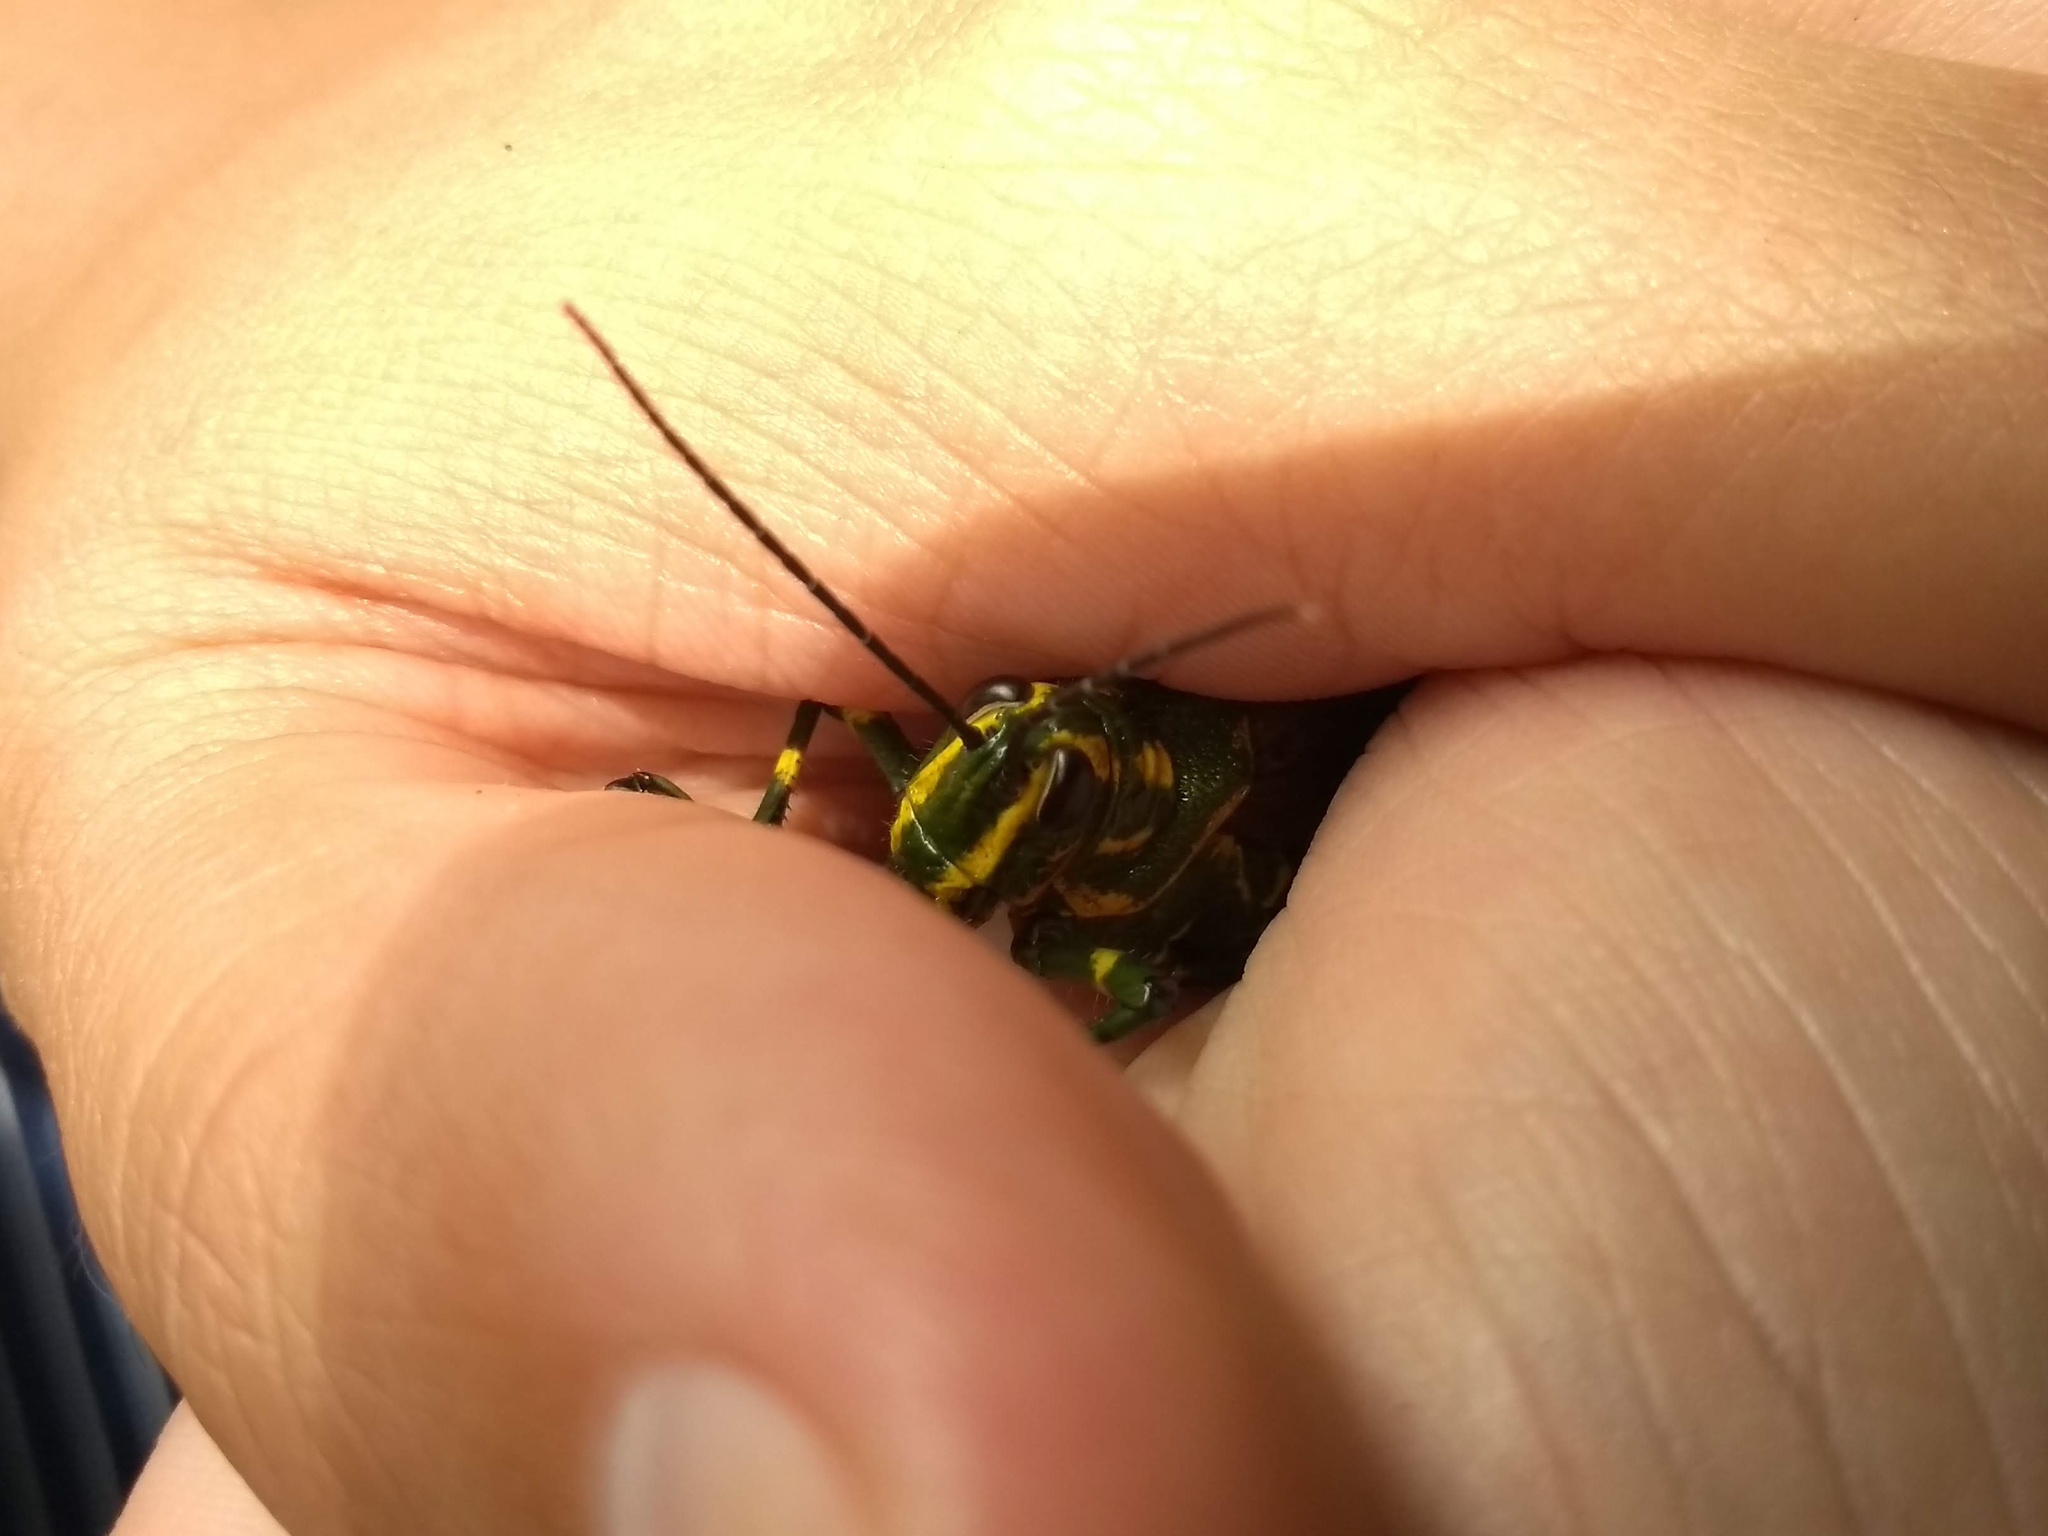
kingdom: Animalia
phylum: Arthropoda
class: Insecta
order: Orthoptera
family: Romaleidae
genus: Chromacris
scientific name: Chromacris speciosa
